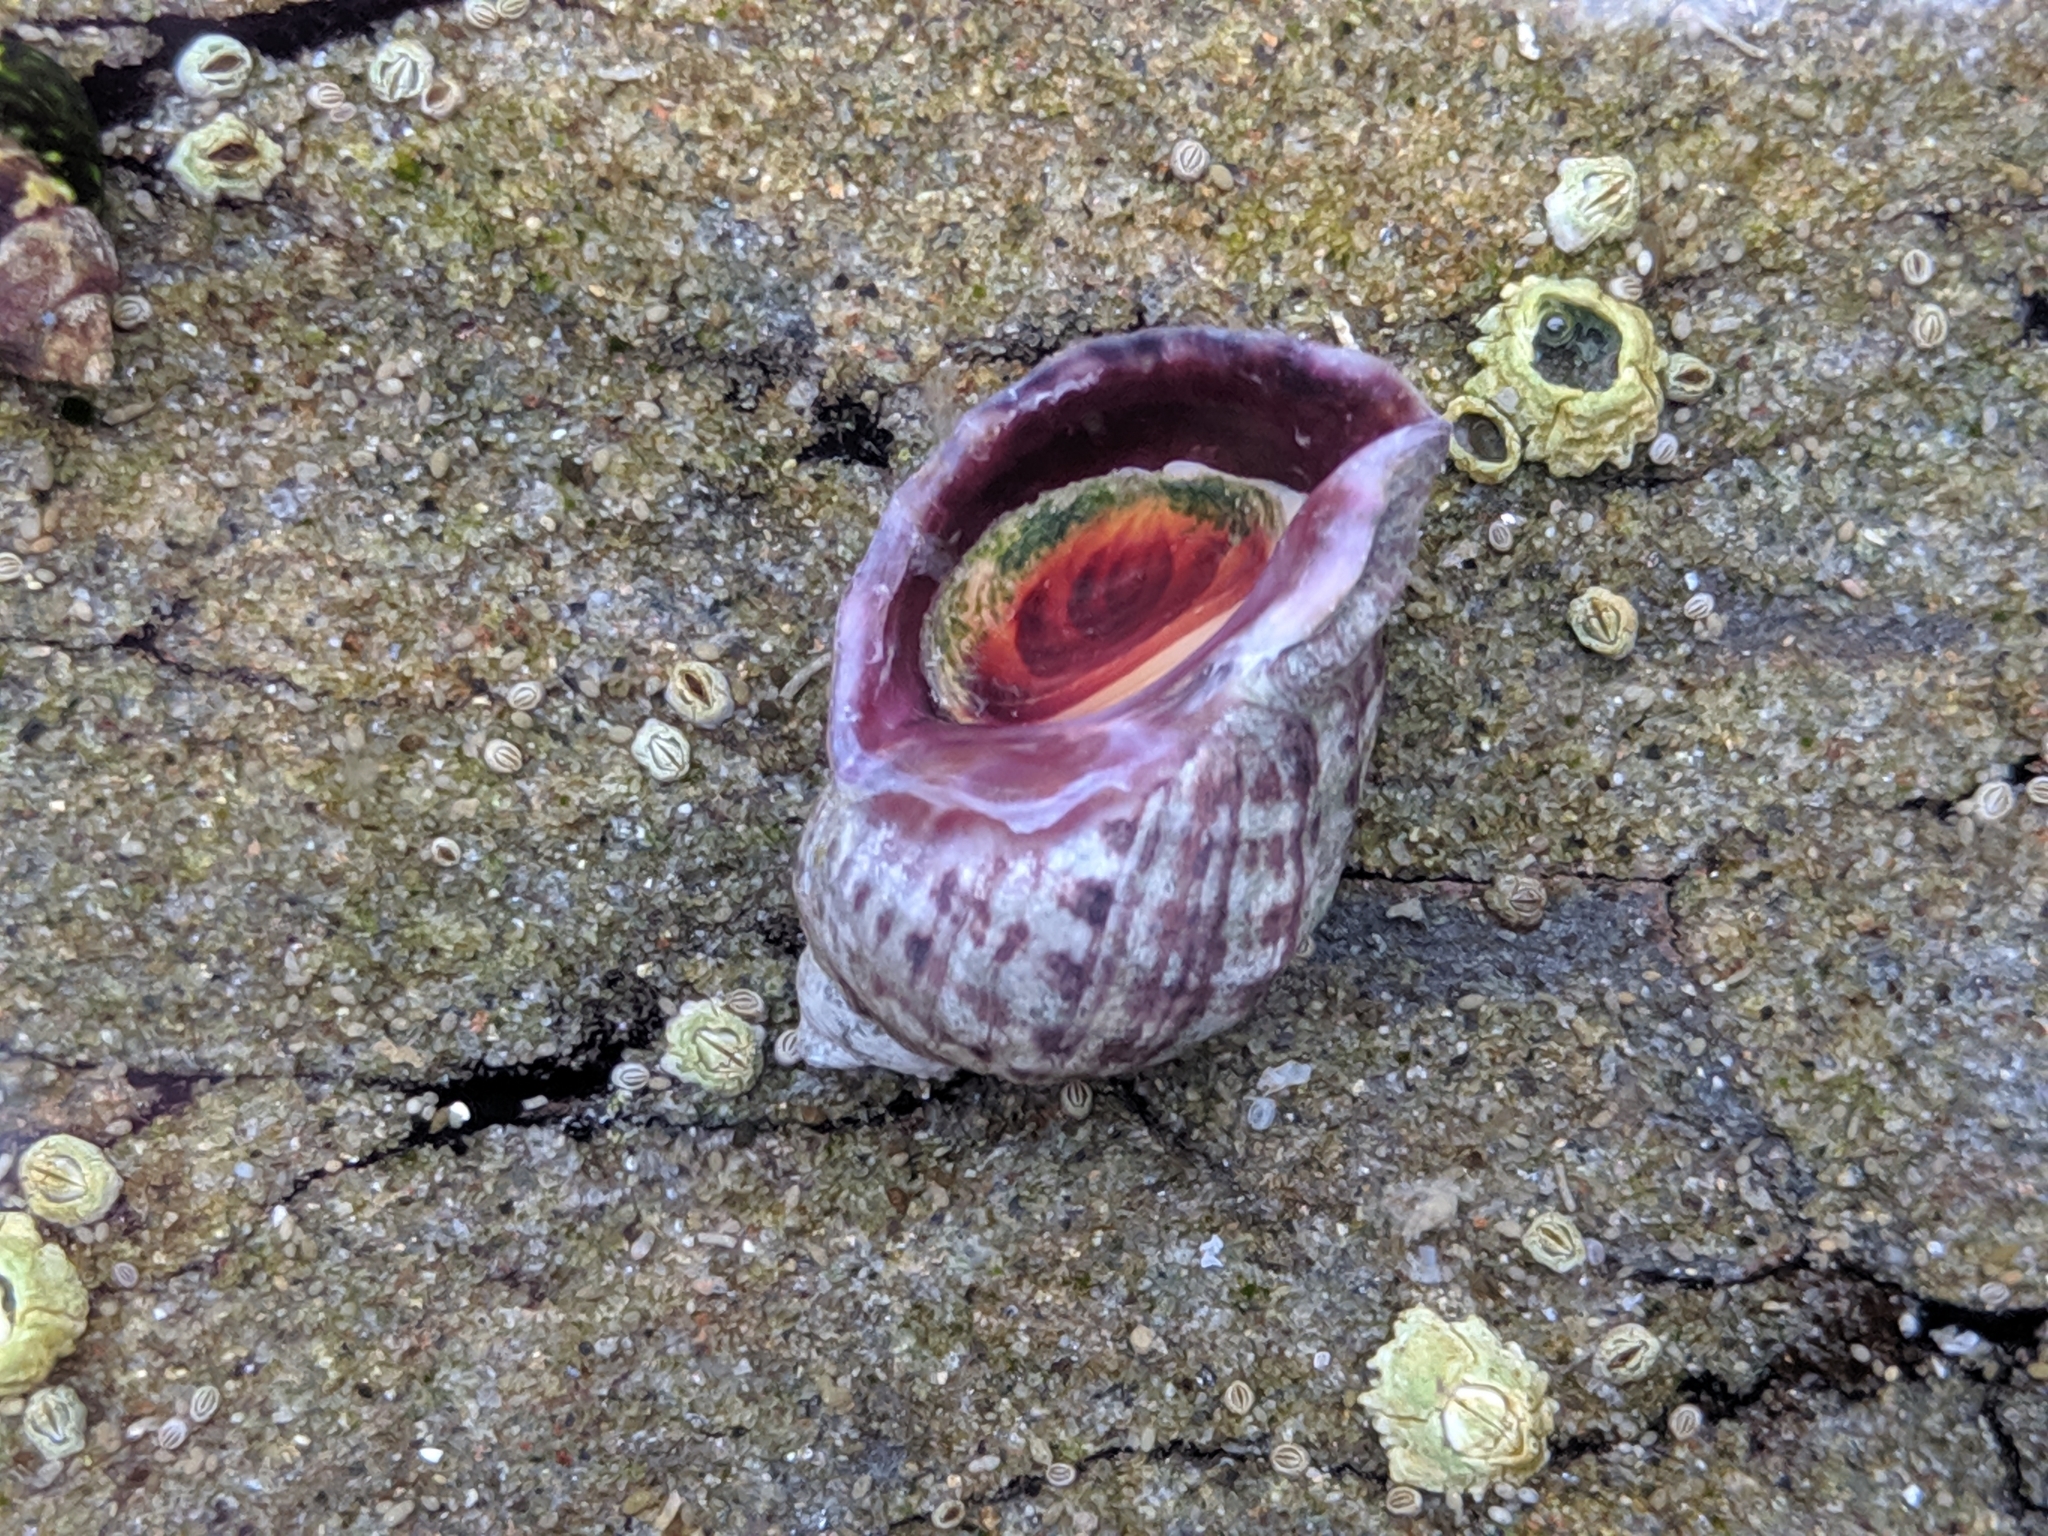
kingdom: Animalia
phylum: Mollusca
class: Gastropoda
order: Neogastropoda
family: Muricidae
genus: Nucella
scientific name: Nucella ostrina
